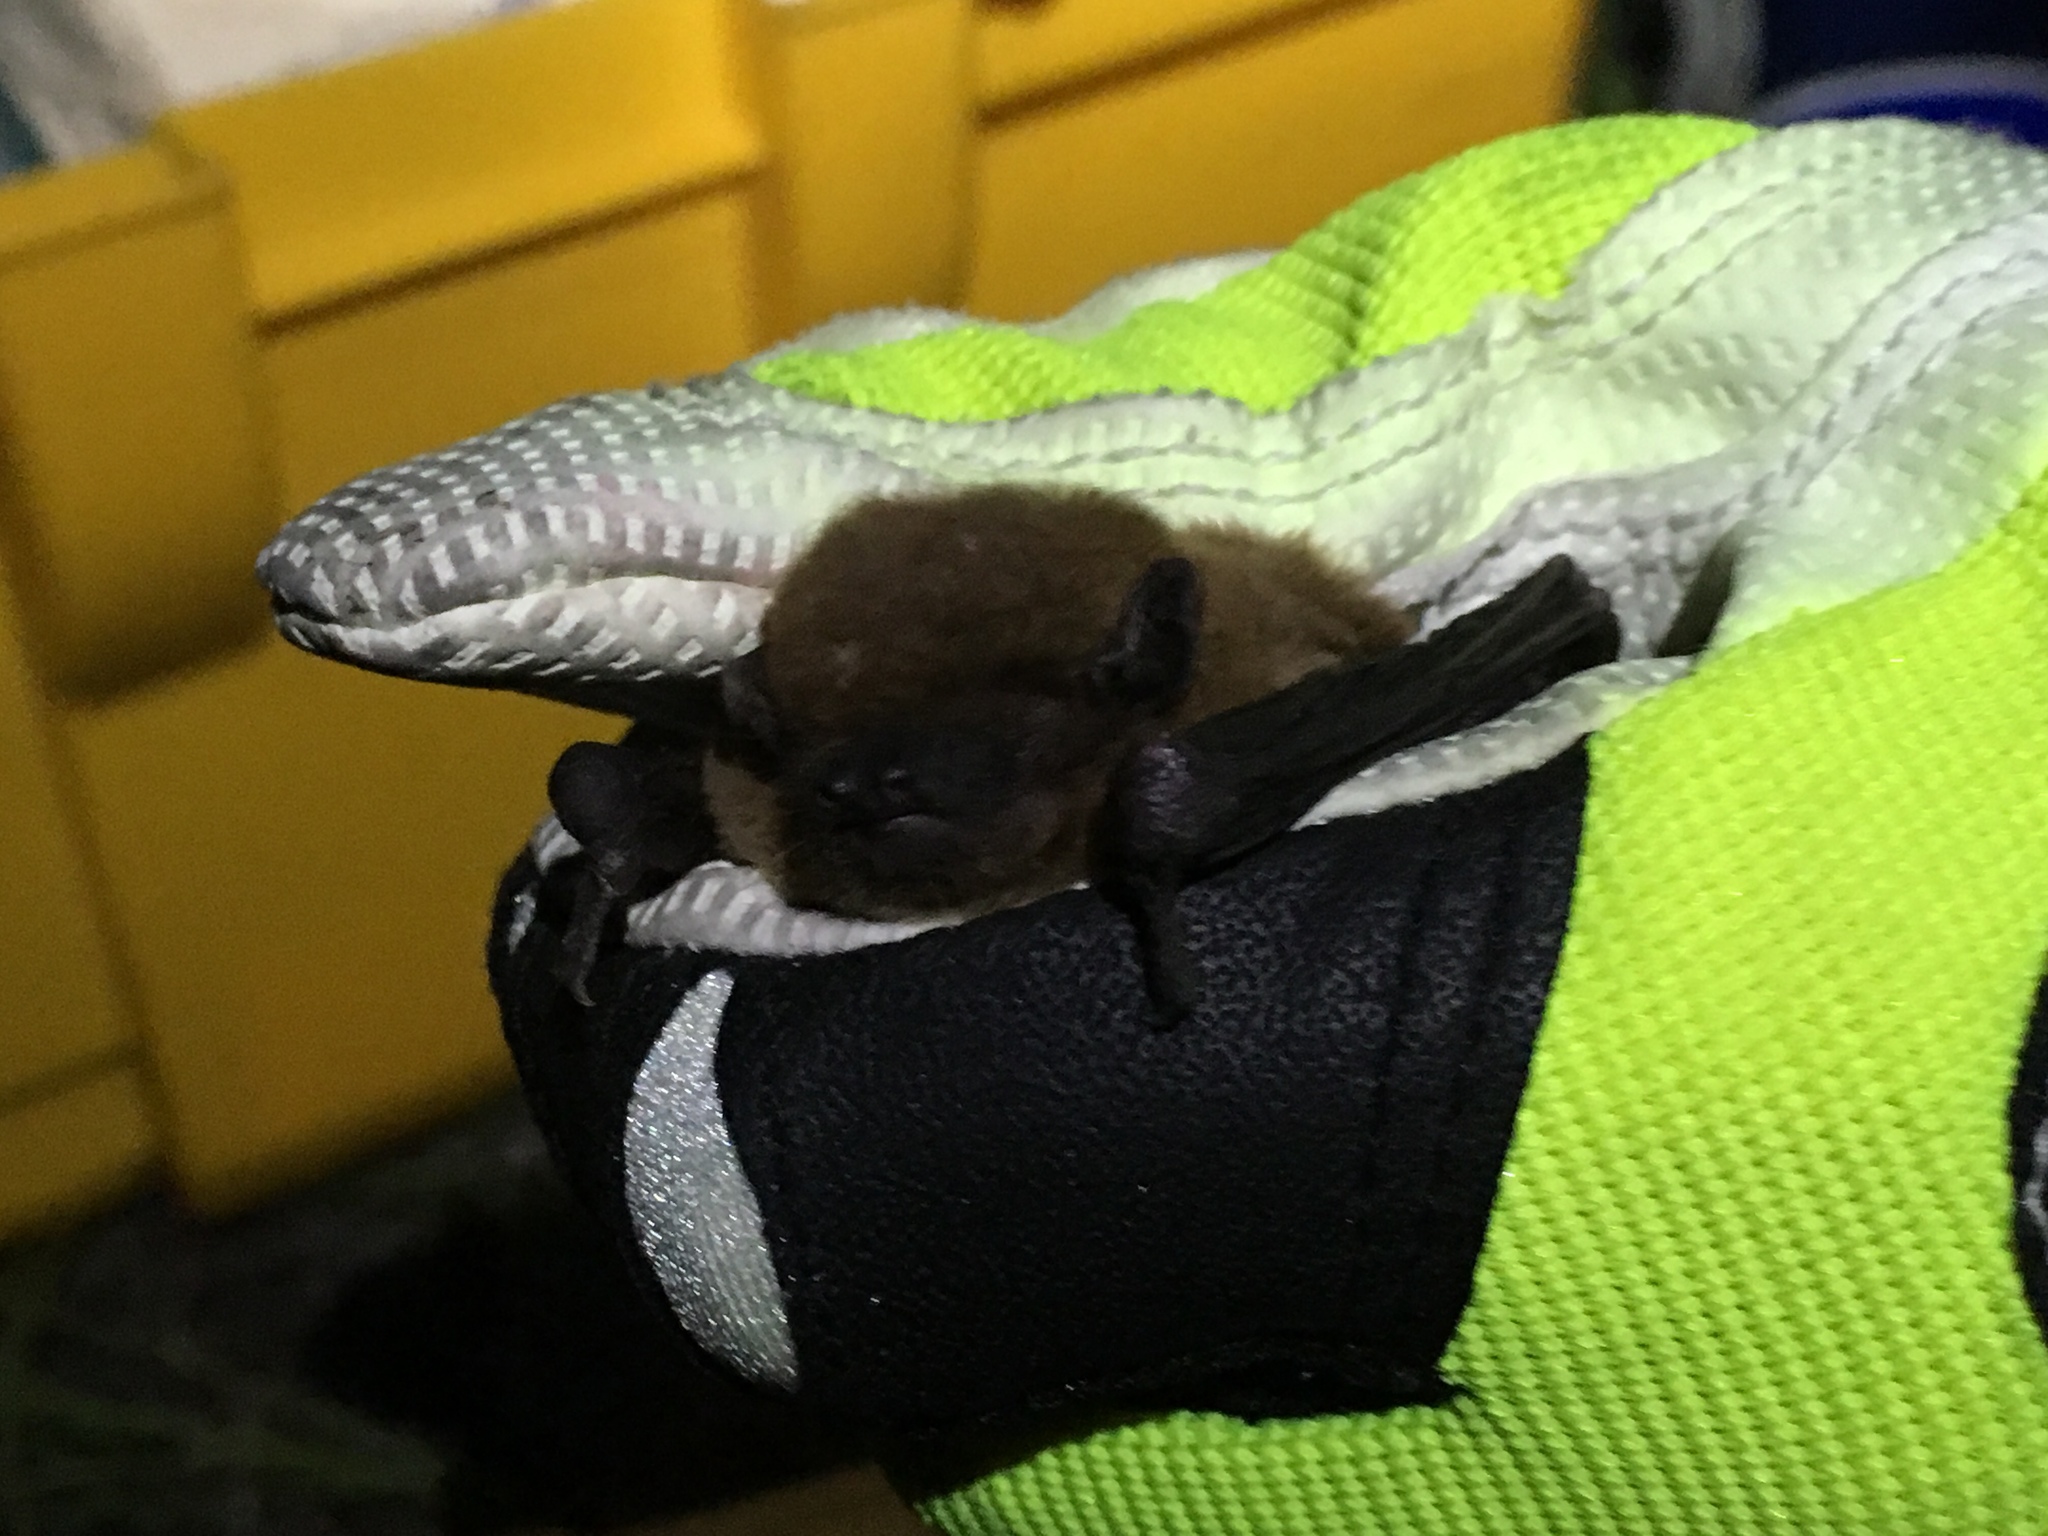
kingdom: Animalia
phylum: Chordata
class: Mammalia
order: Chiroptera
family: Vespertilionidae
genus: Nycticeius
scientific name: Nycticeius humeralis
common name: Evening bat
